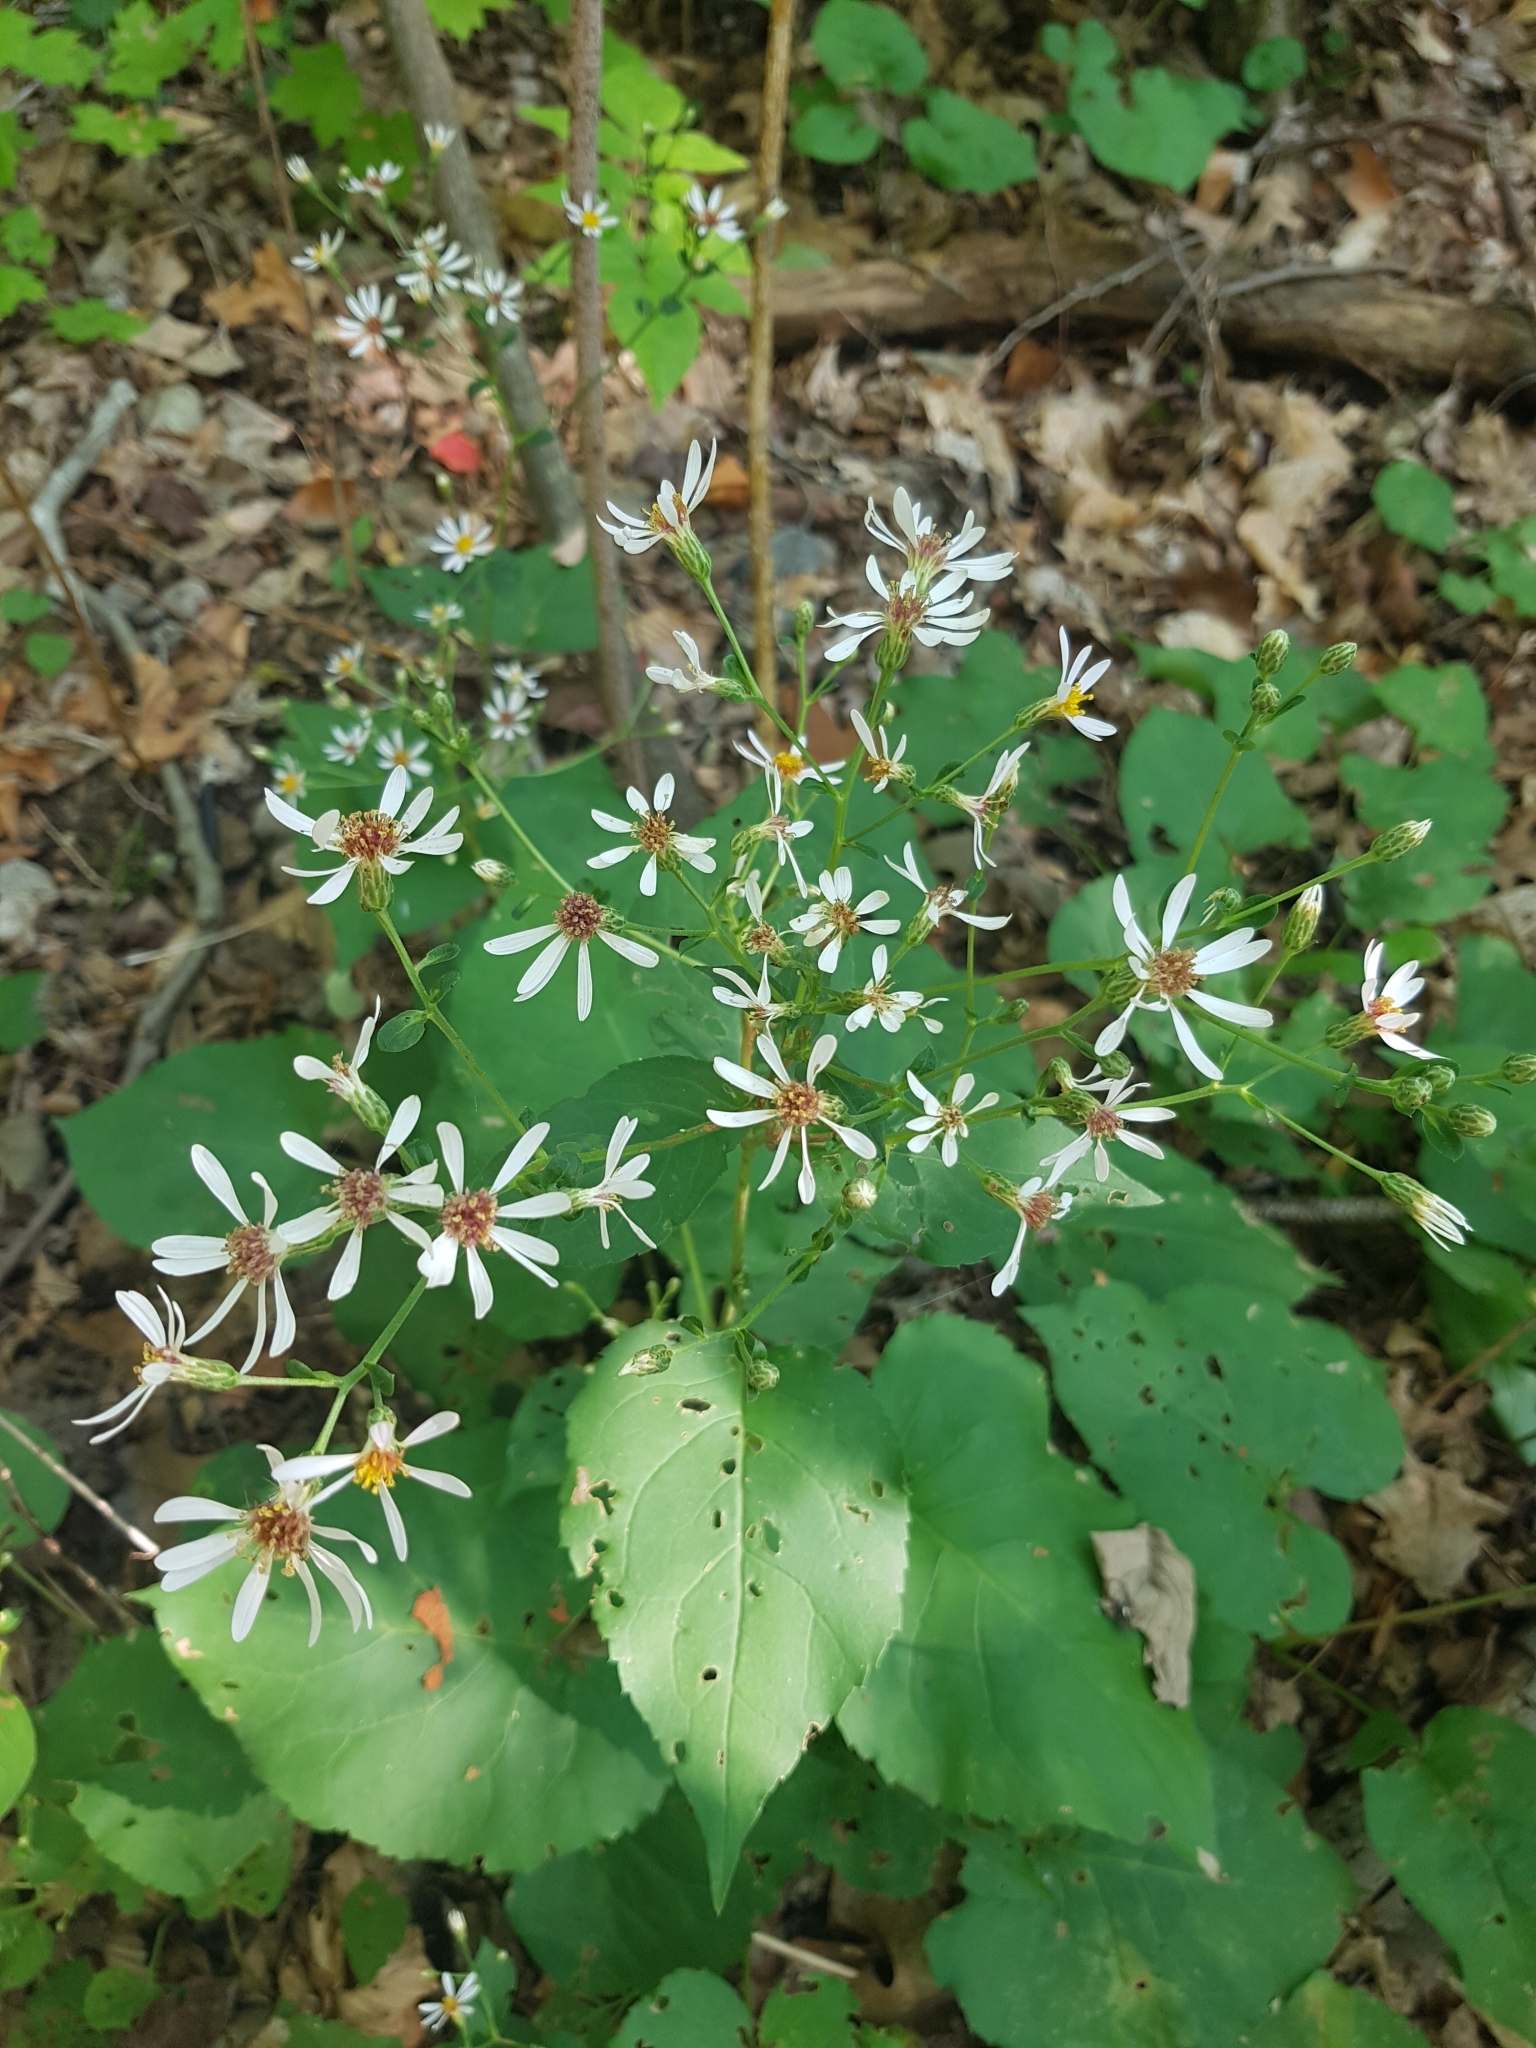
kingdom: Plantae
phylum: Tracheophyta
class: Magnoliopsida
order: Asterales
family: Asteraceae
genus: Eurybia
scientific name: Eurybia macrophylla
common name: Big-leaved aster
